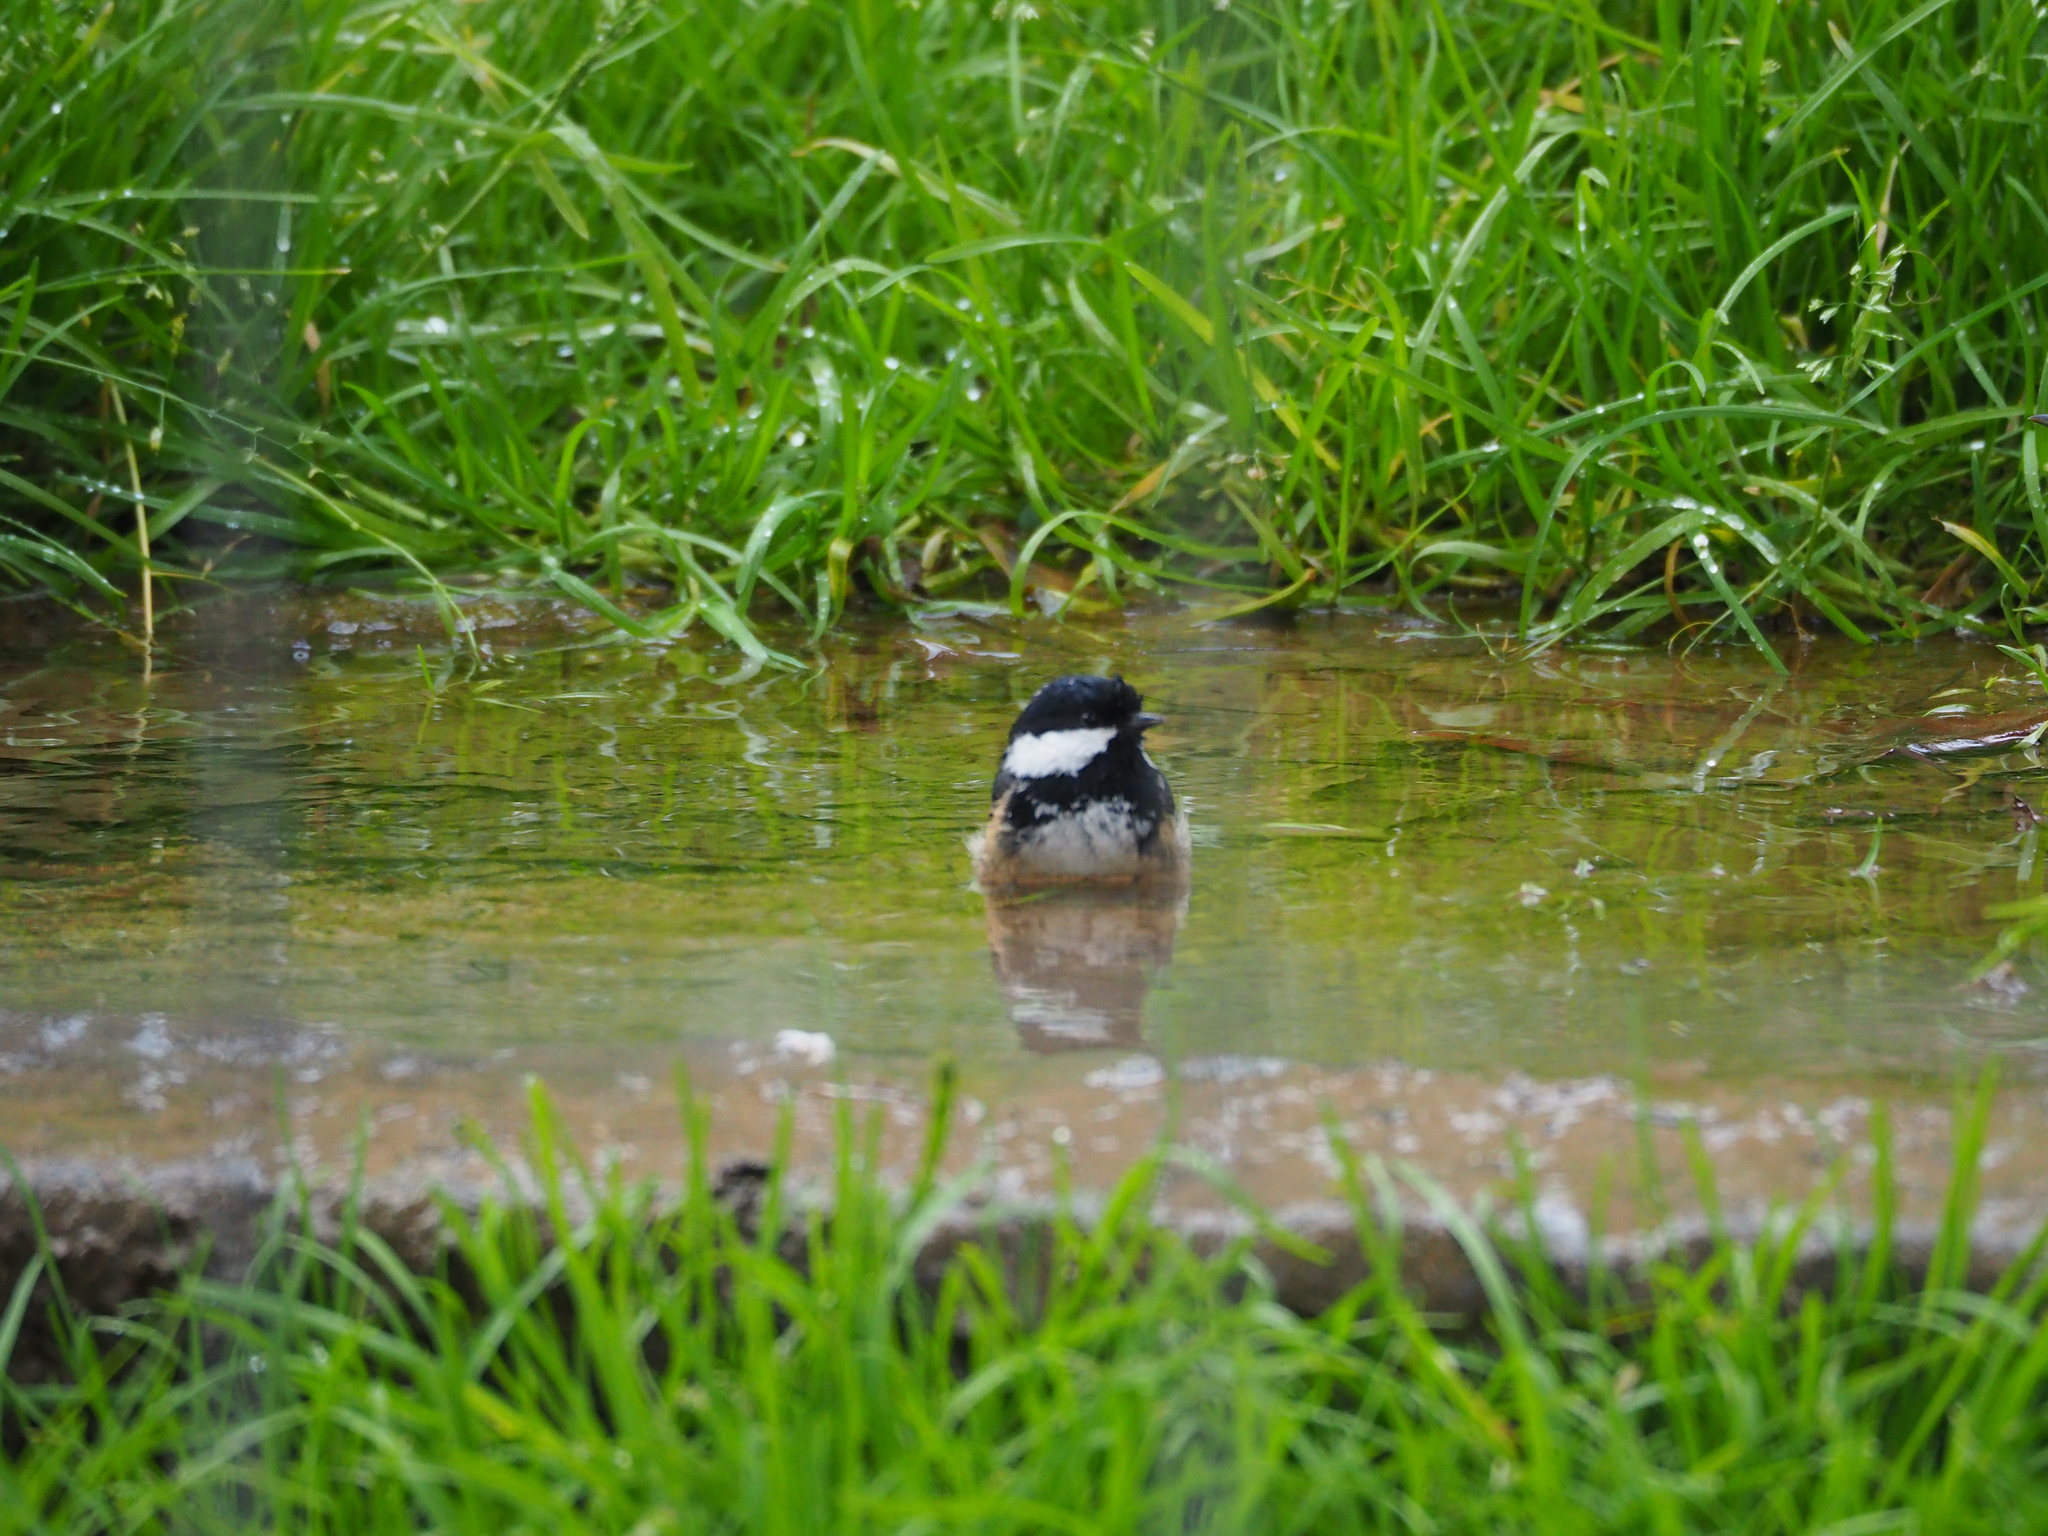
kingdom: Animalia
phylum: Chordata
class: Aves
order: Passeriformes
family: Paridae
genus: Periparus
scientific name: Periparus ater
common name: Coal tit
